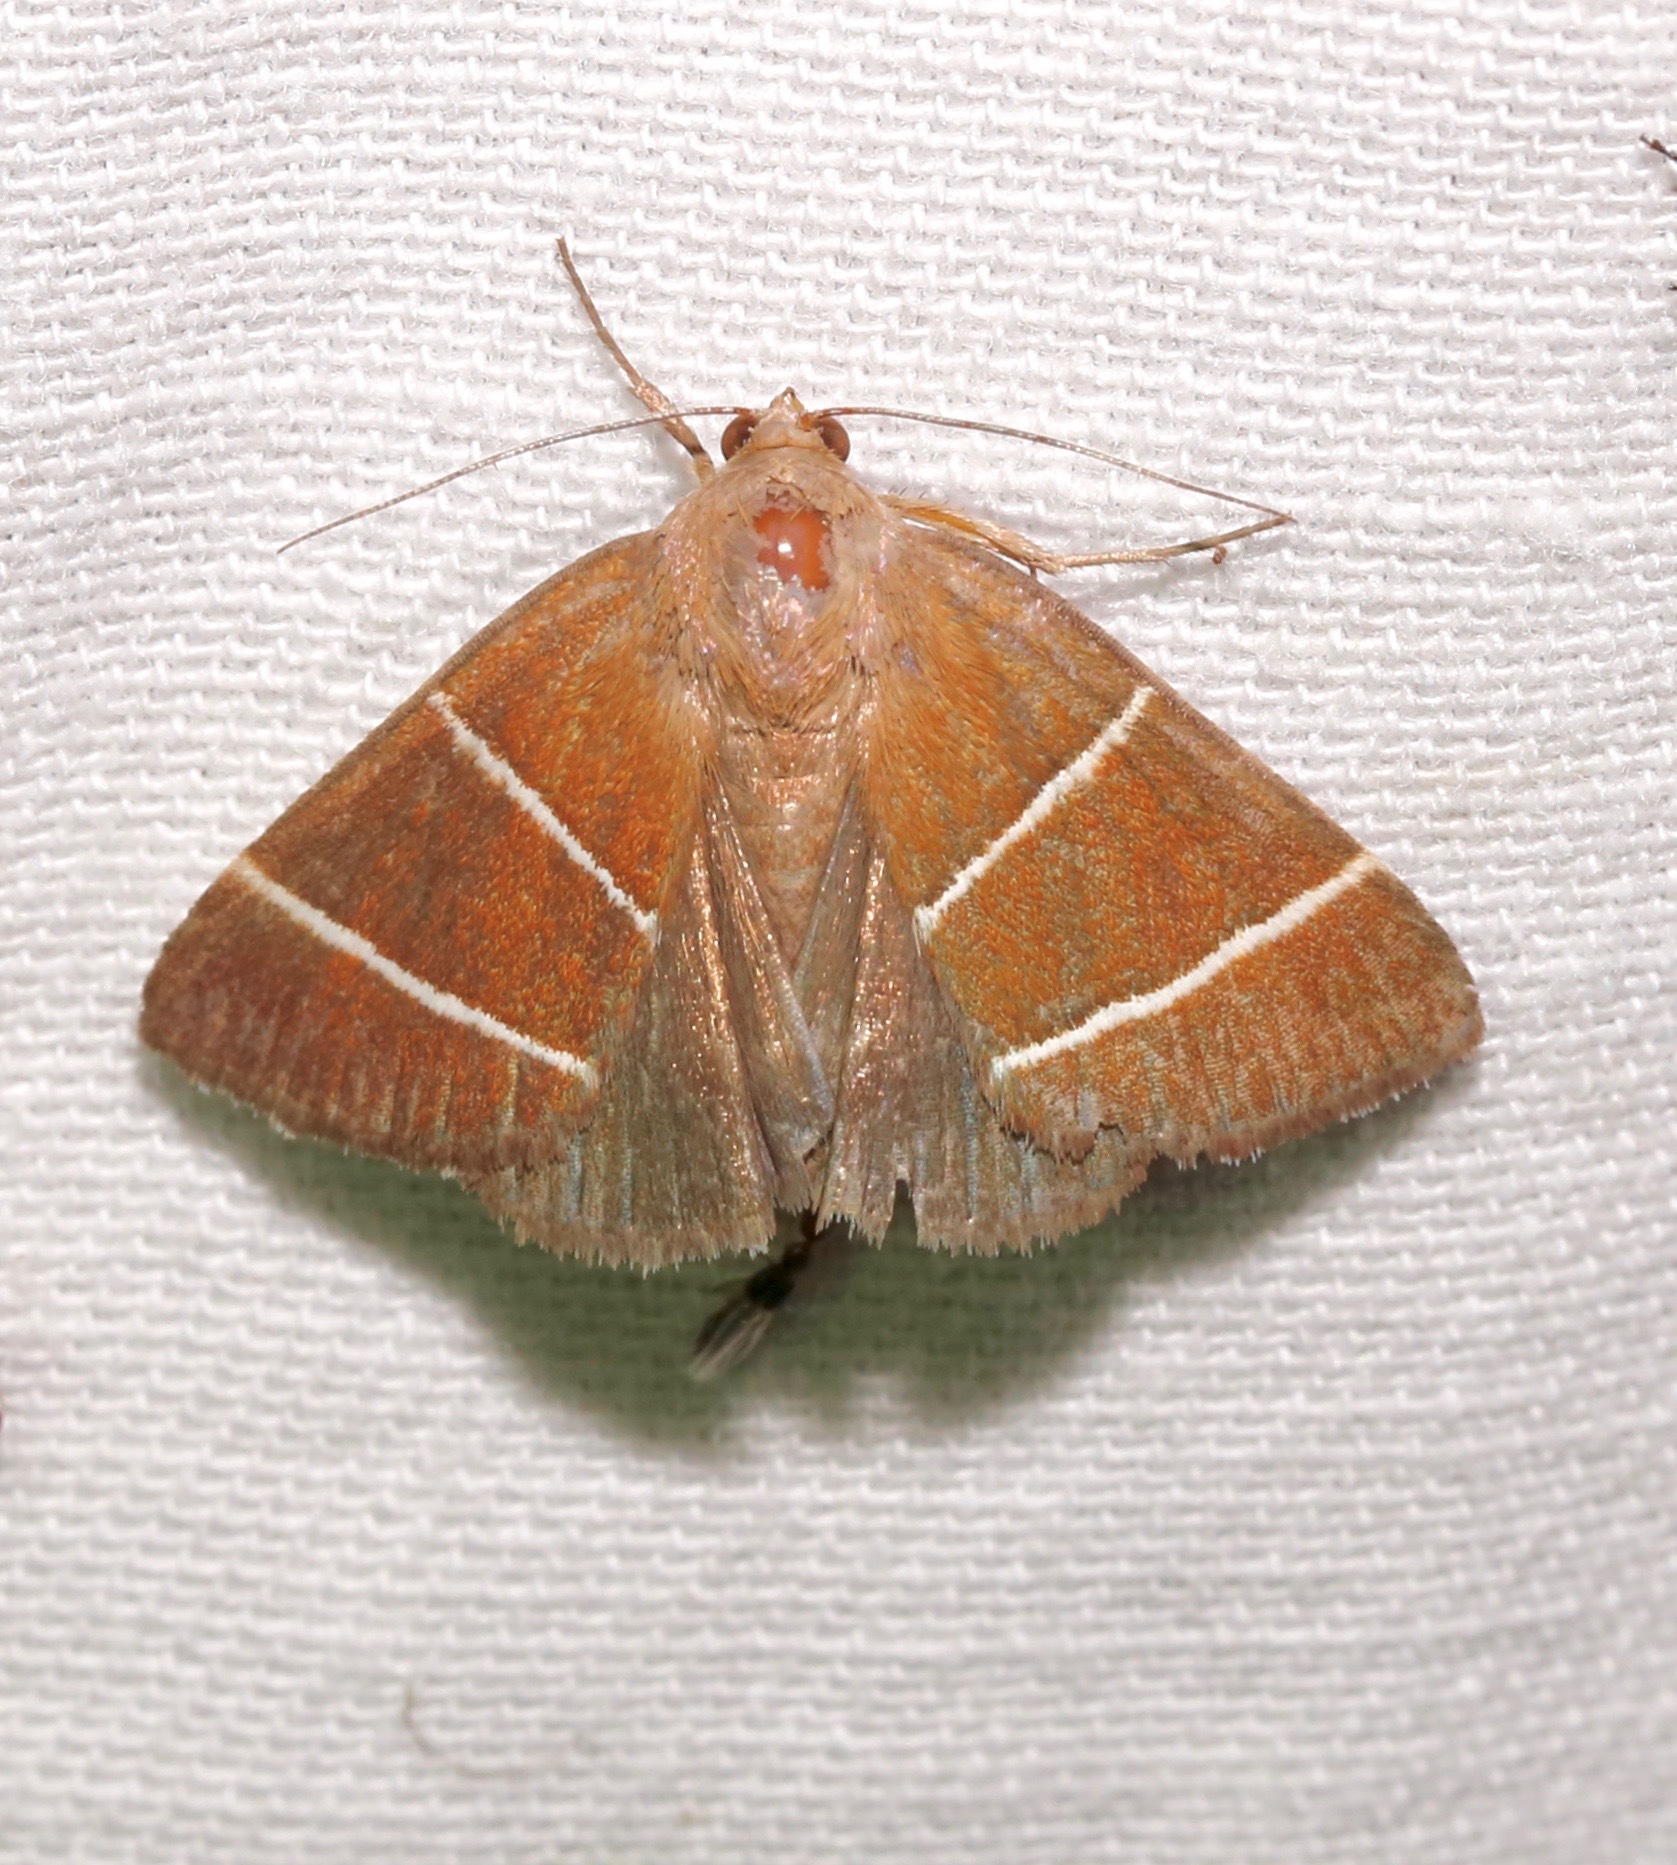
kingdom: Animalia
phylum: Arthropoda
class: Insecta
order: Lepidoptera
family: Erebidae
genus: Argyrostrotis
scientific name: Argyrostrotis quadrifilaris
